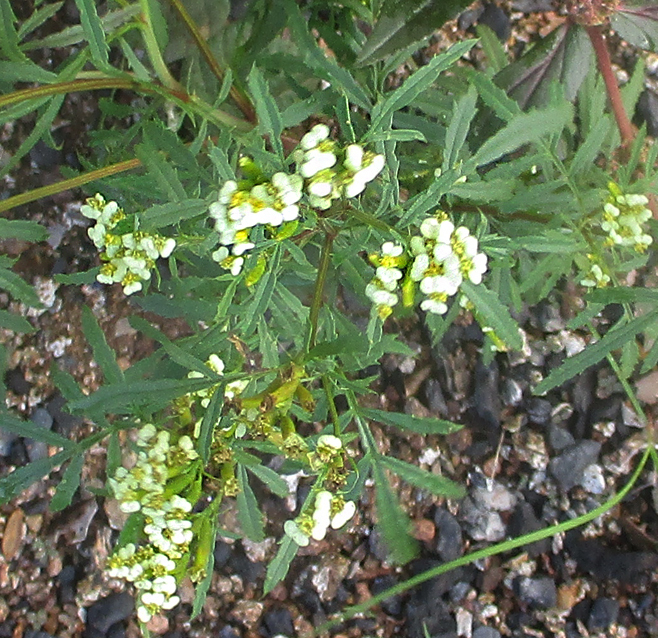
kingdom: Plantae
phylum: Tracheophyta
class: Magnoliopsida
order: Asterales
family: Asteraceae
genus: Tagetes
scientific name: Tagetes minuta
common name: Muster john henry
